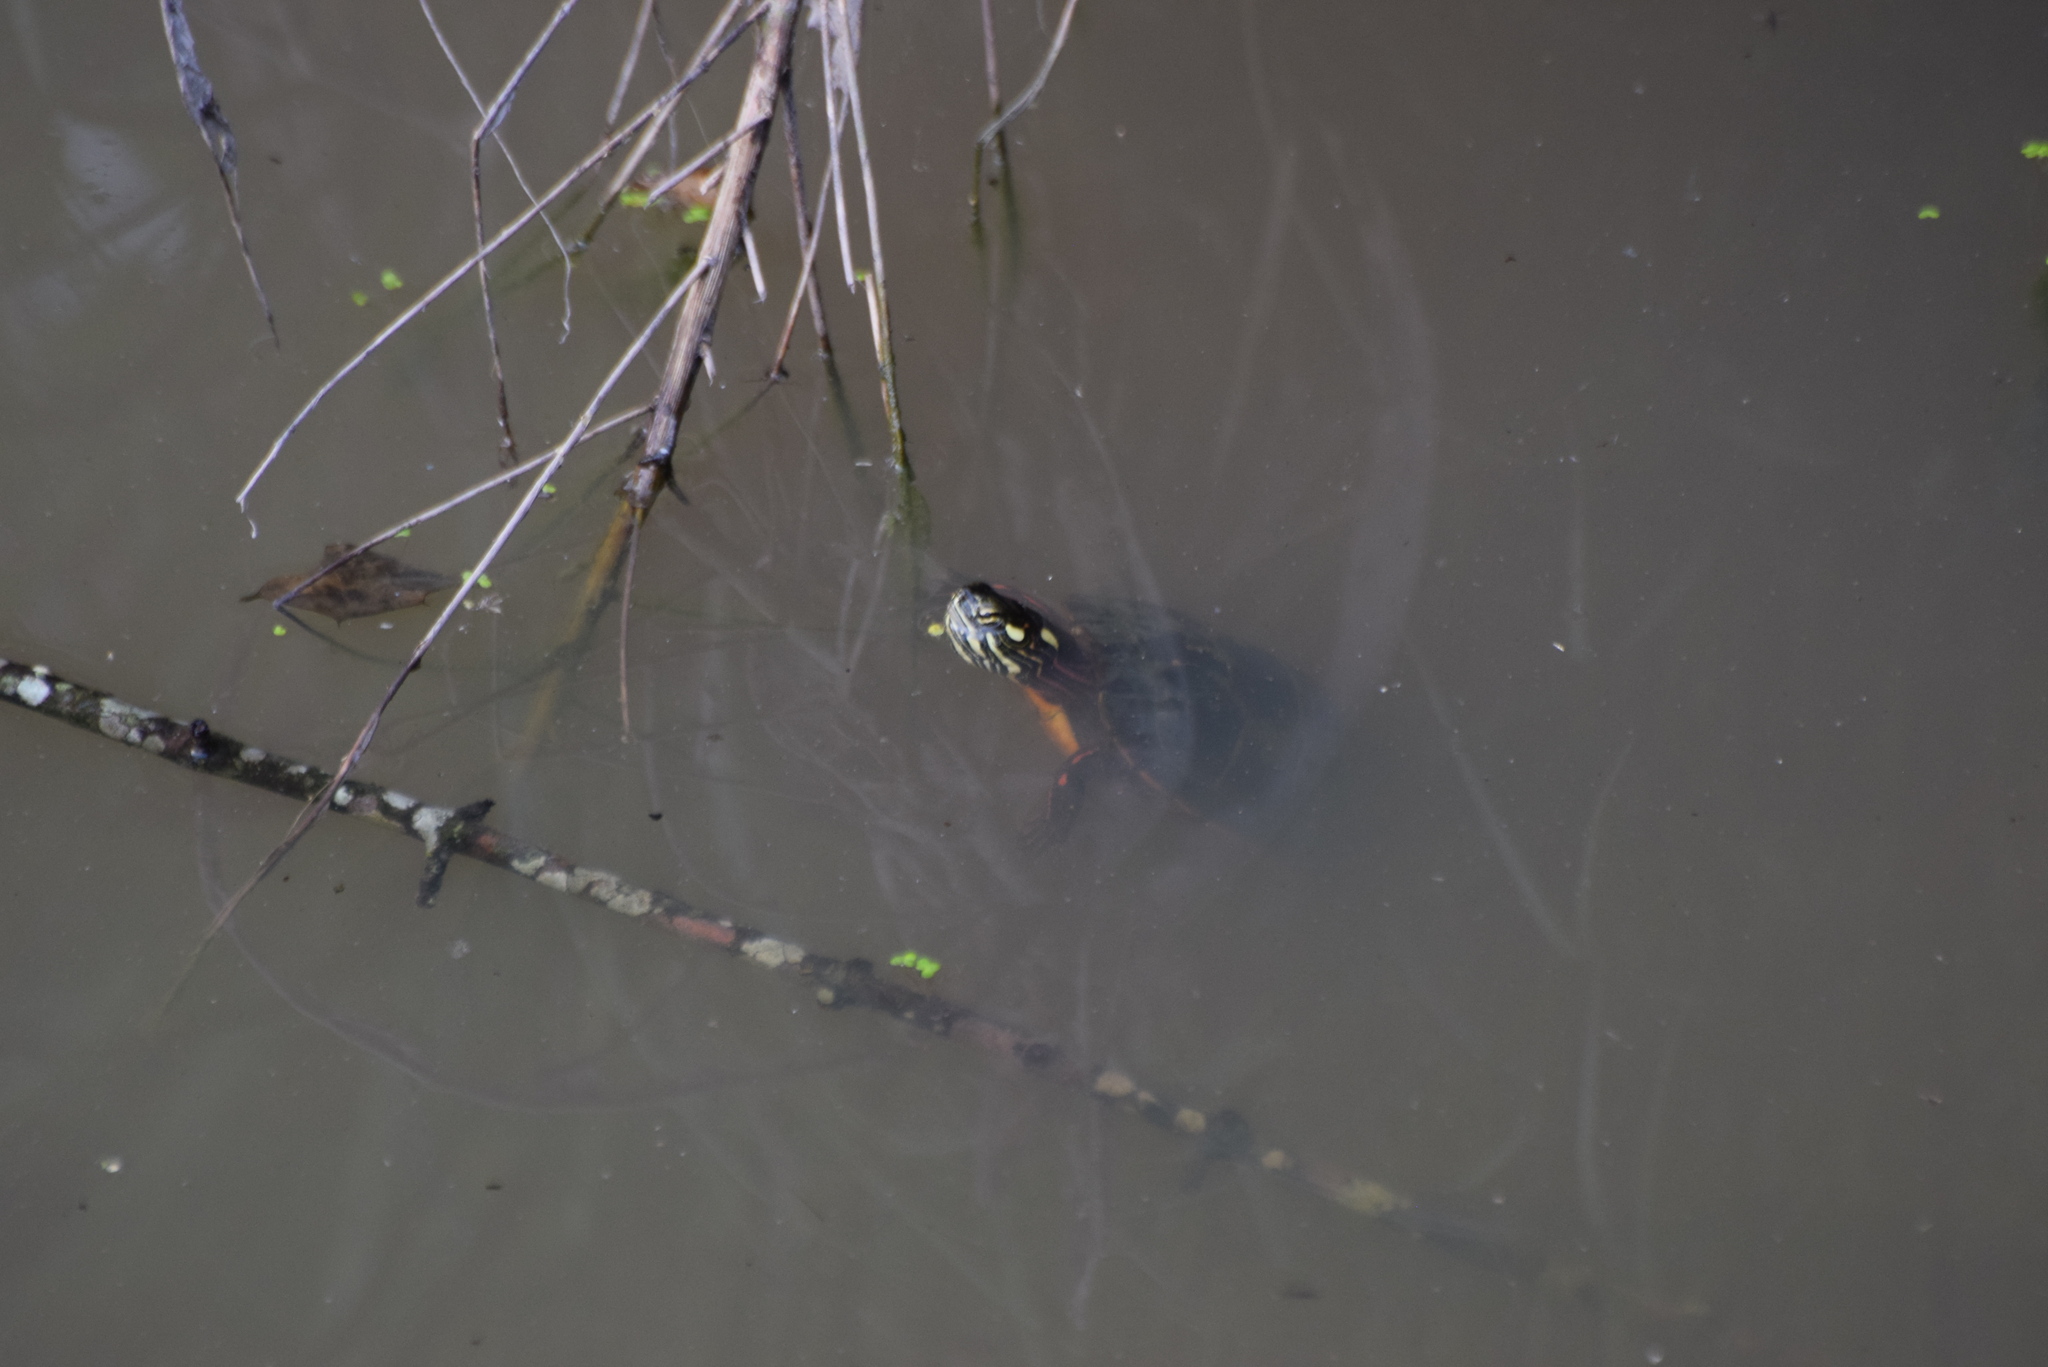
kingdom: Animalia
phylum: Chordata
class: Testudines
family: Emydidae
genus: Chrysemys
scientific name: Chrysemys picta
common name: Painted turtle
